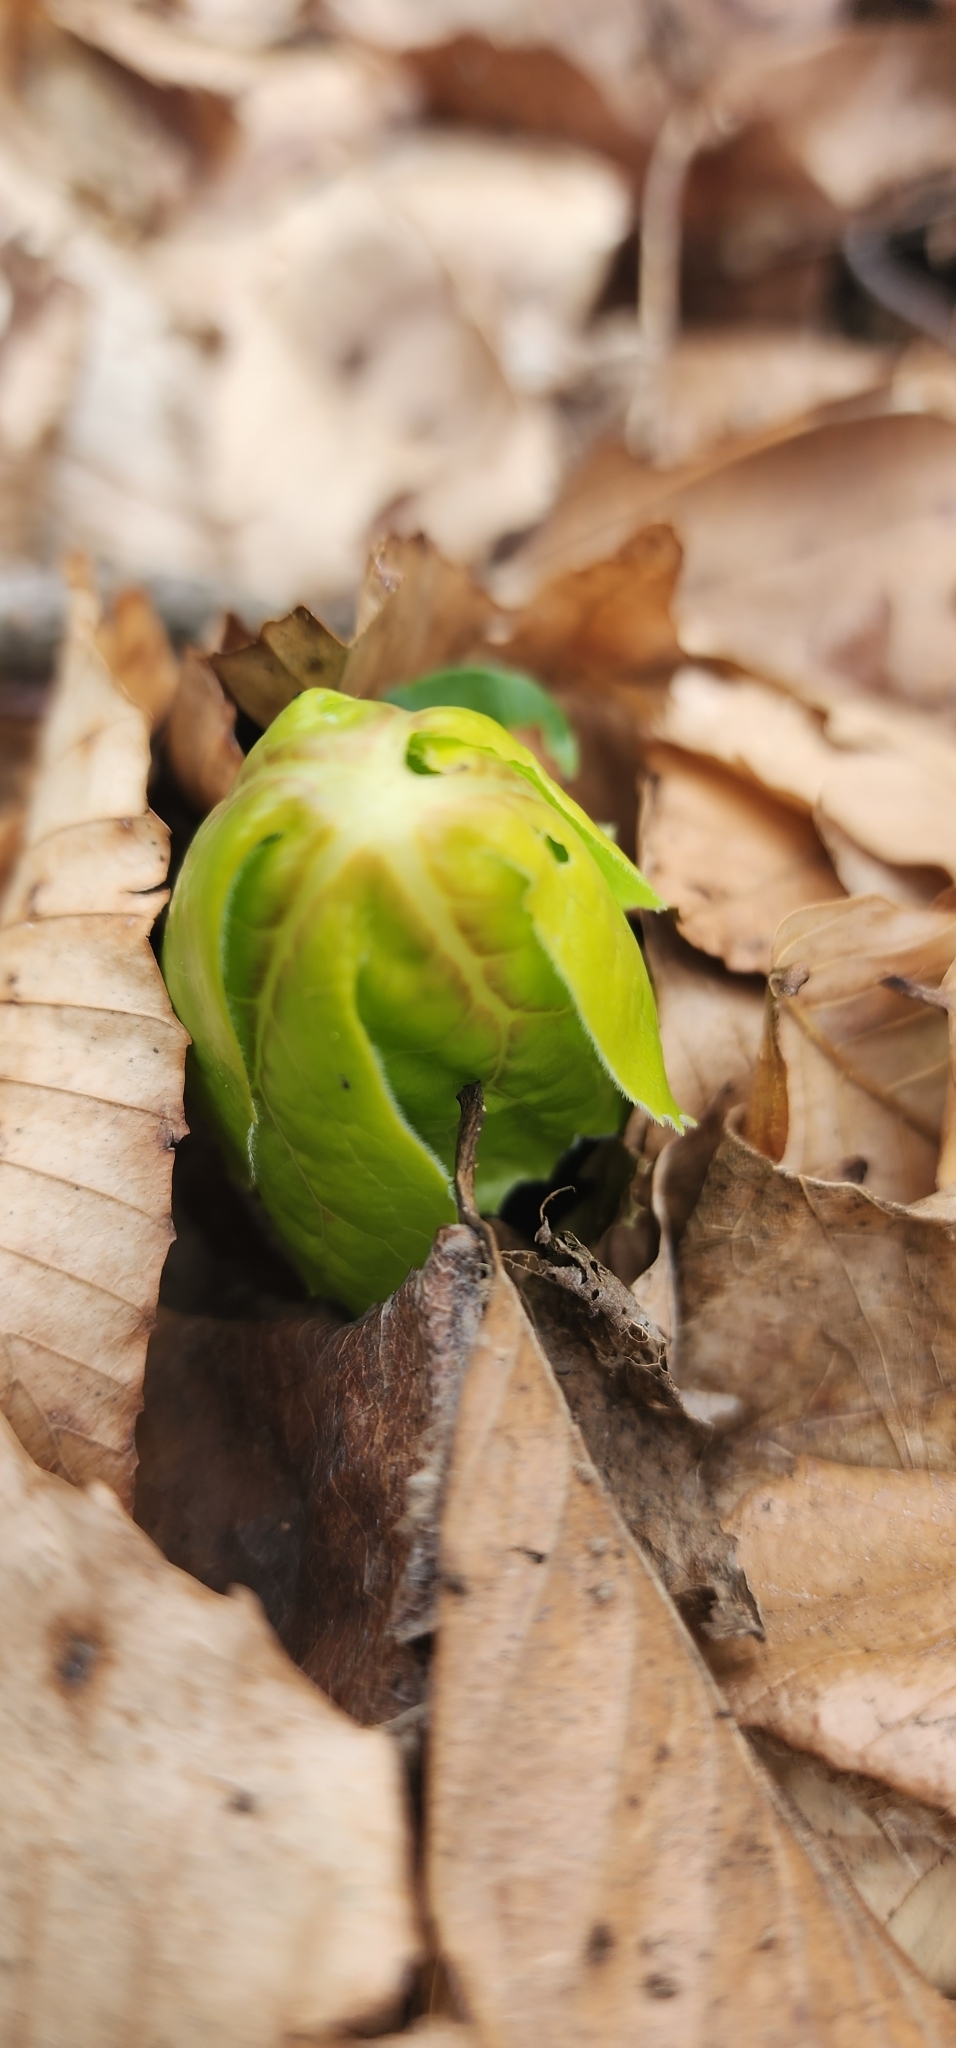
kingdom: Plantae
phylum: Tracheophyta
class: Magnoliopsida
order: Ranunculales
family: Berberidaceae
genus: Podophyllum
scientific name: Podophyllum peltatum
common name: Wild mandrake
